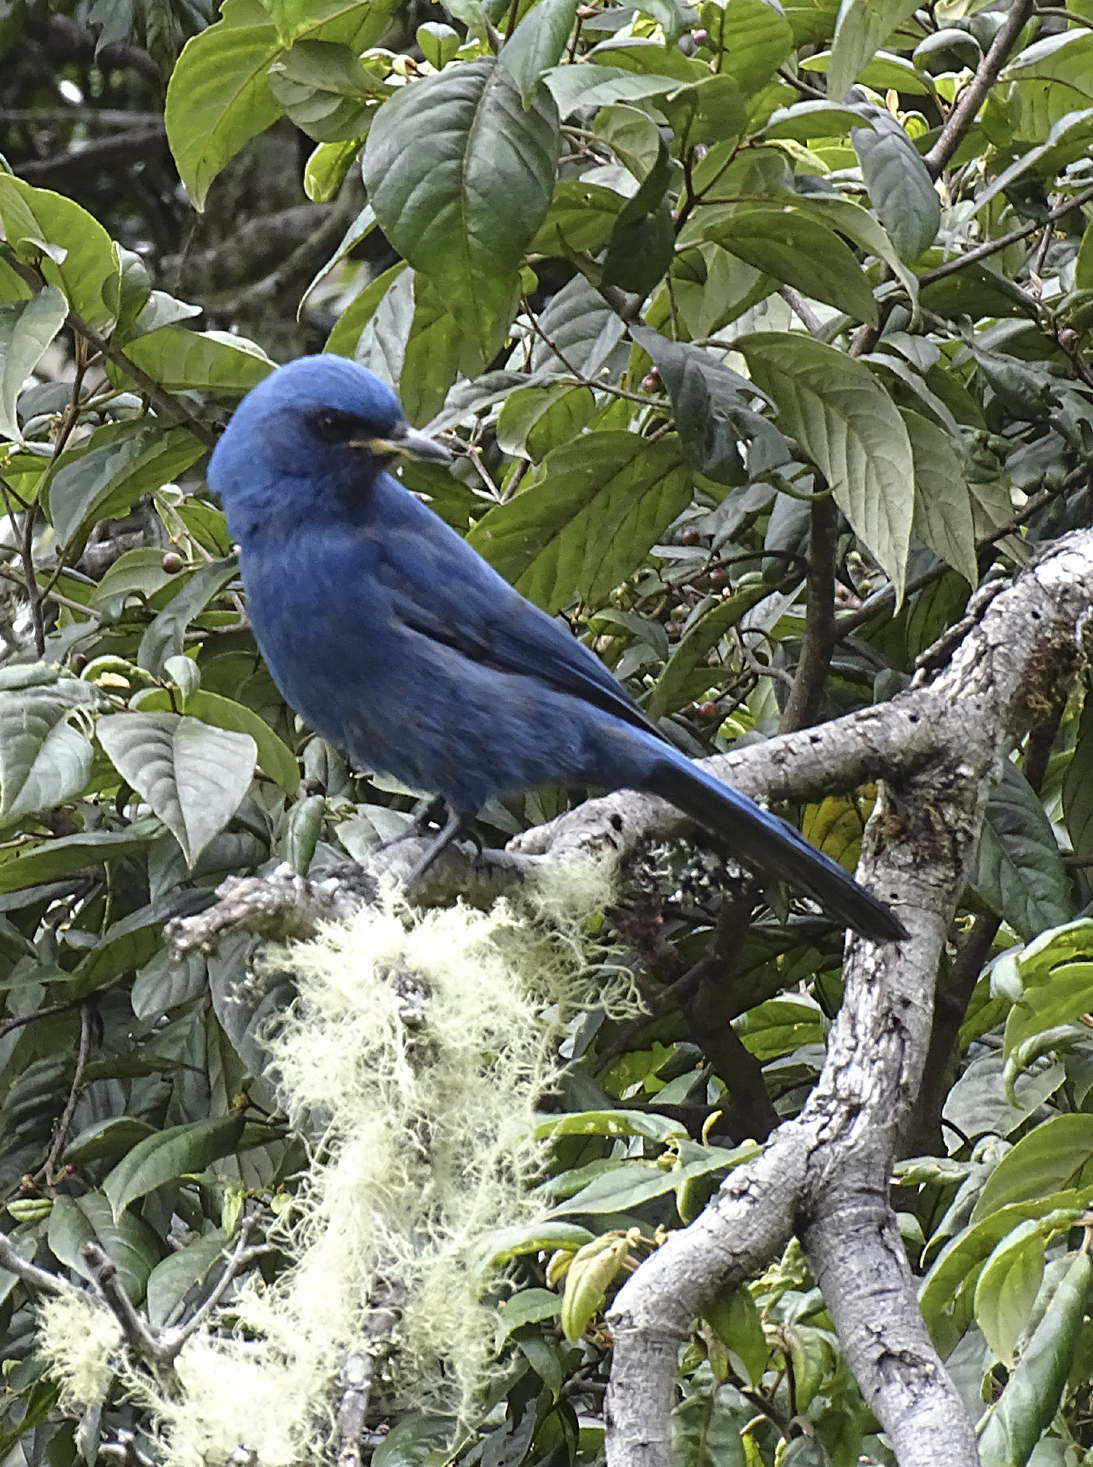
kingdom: Animalia
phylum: Chordata
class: Aves
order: Passeriformes
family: Corvidae
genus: Aphelocoma
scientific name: Aphelocoma unicolor
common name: Unicolored jay
